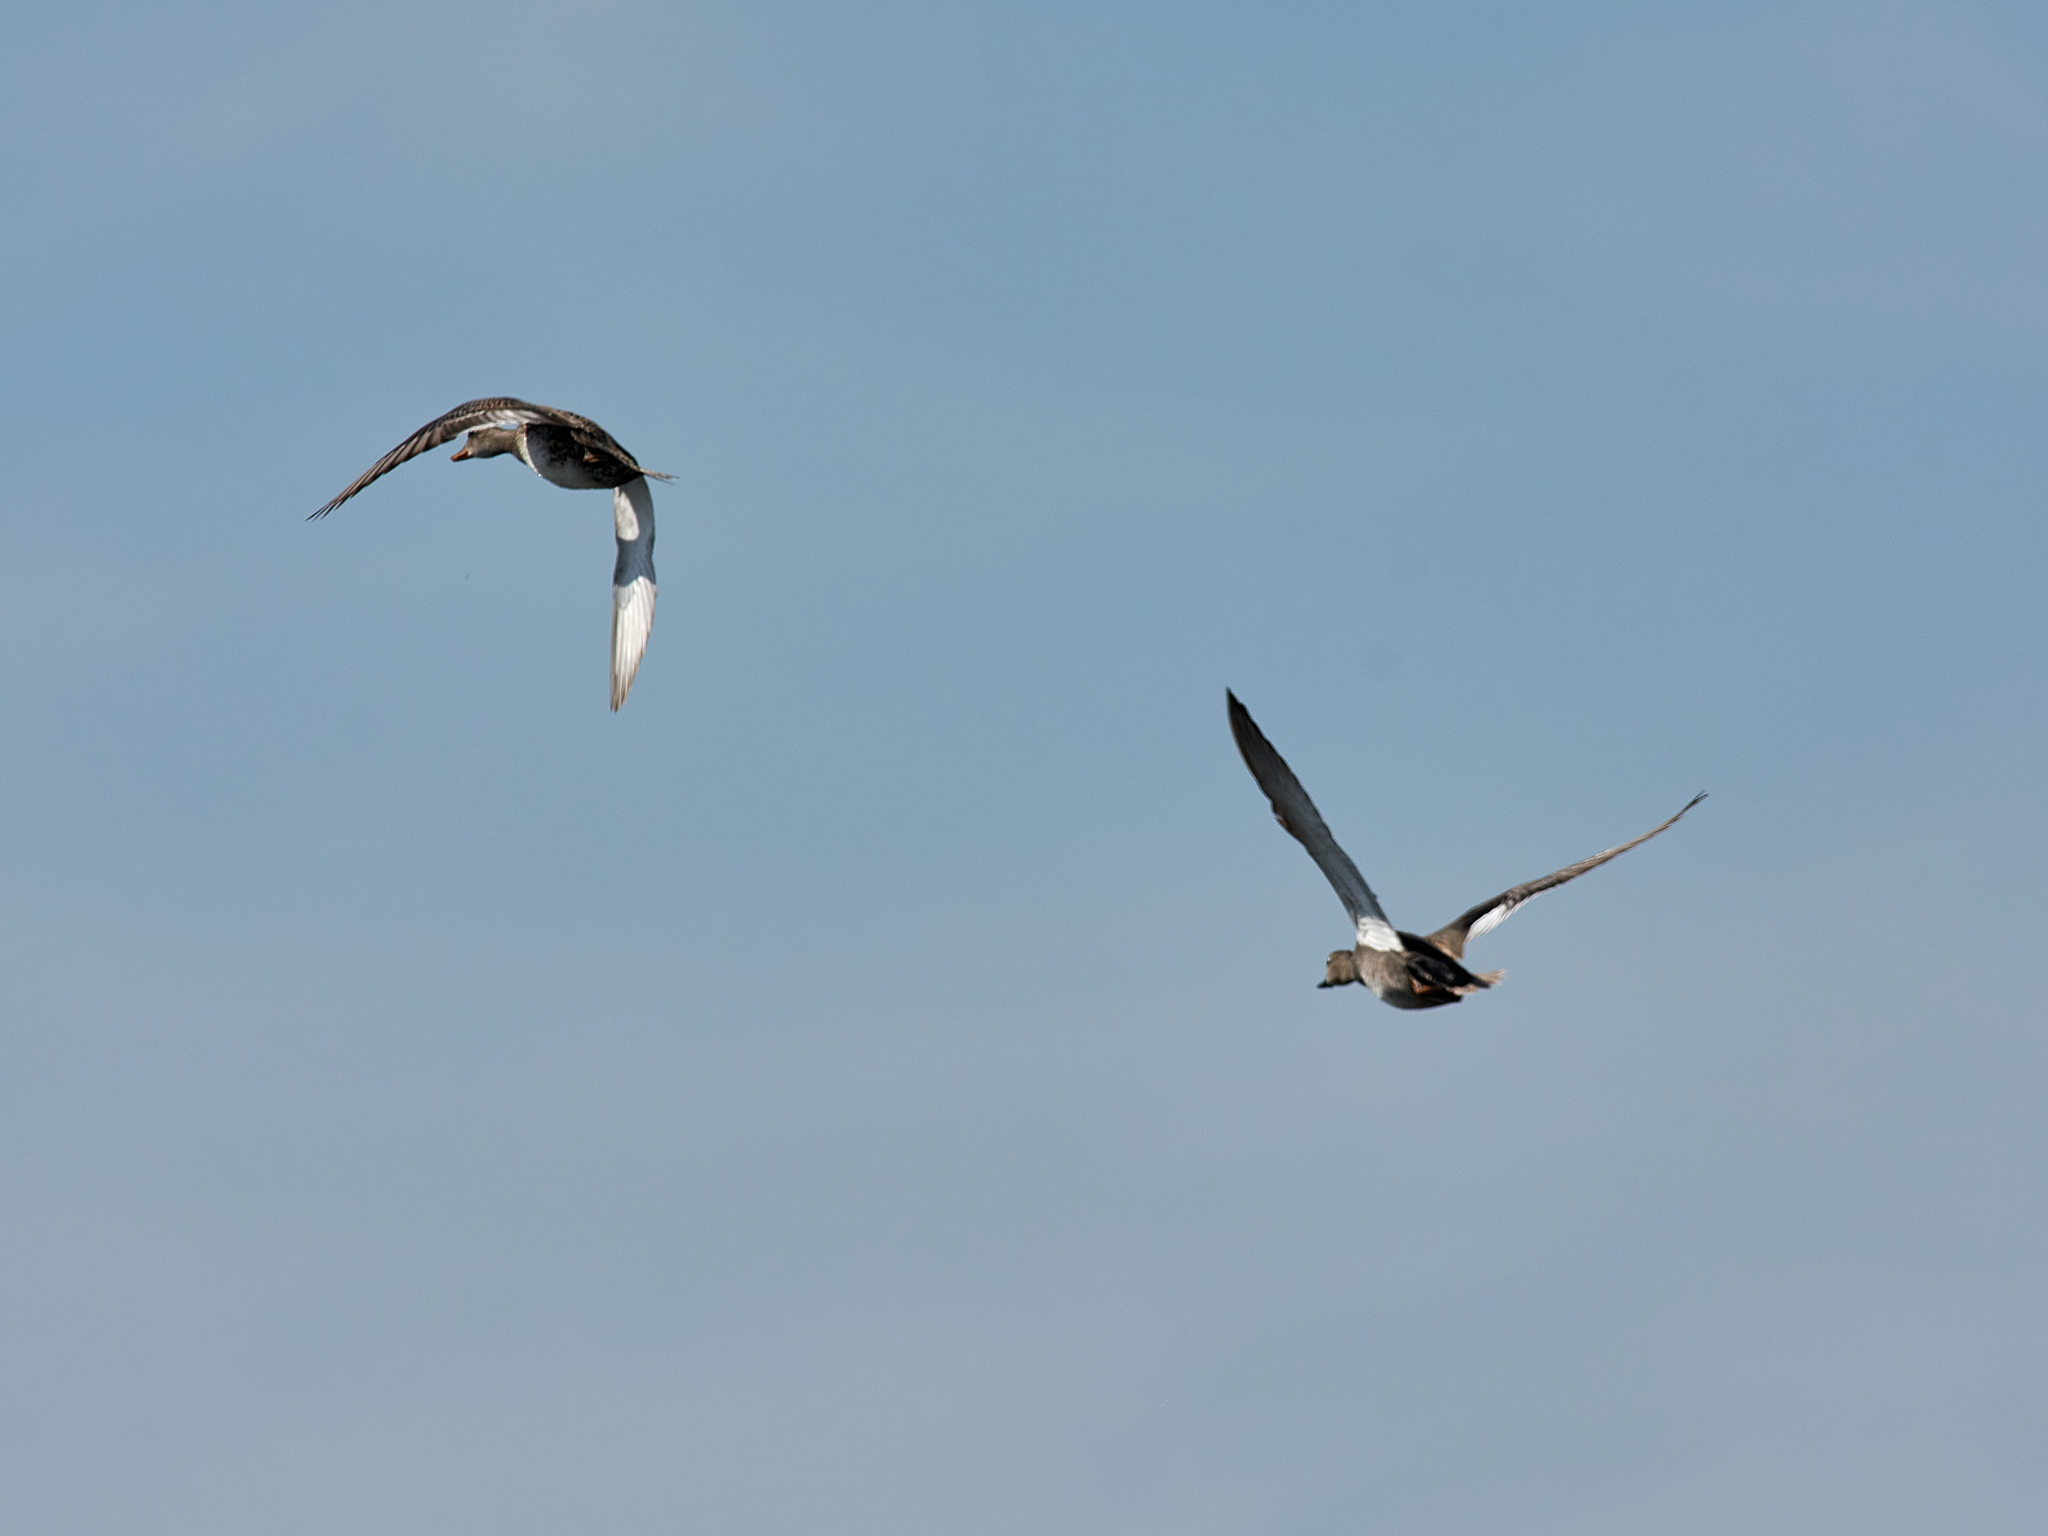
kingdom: Animalia
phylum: Chordata
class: Aves
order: Anseriformes
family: Anatidae
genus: Mareca
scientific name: Mareca strepera
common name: Gadwall
